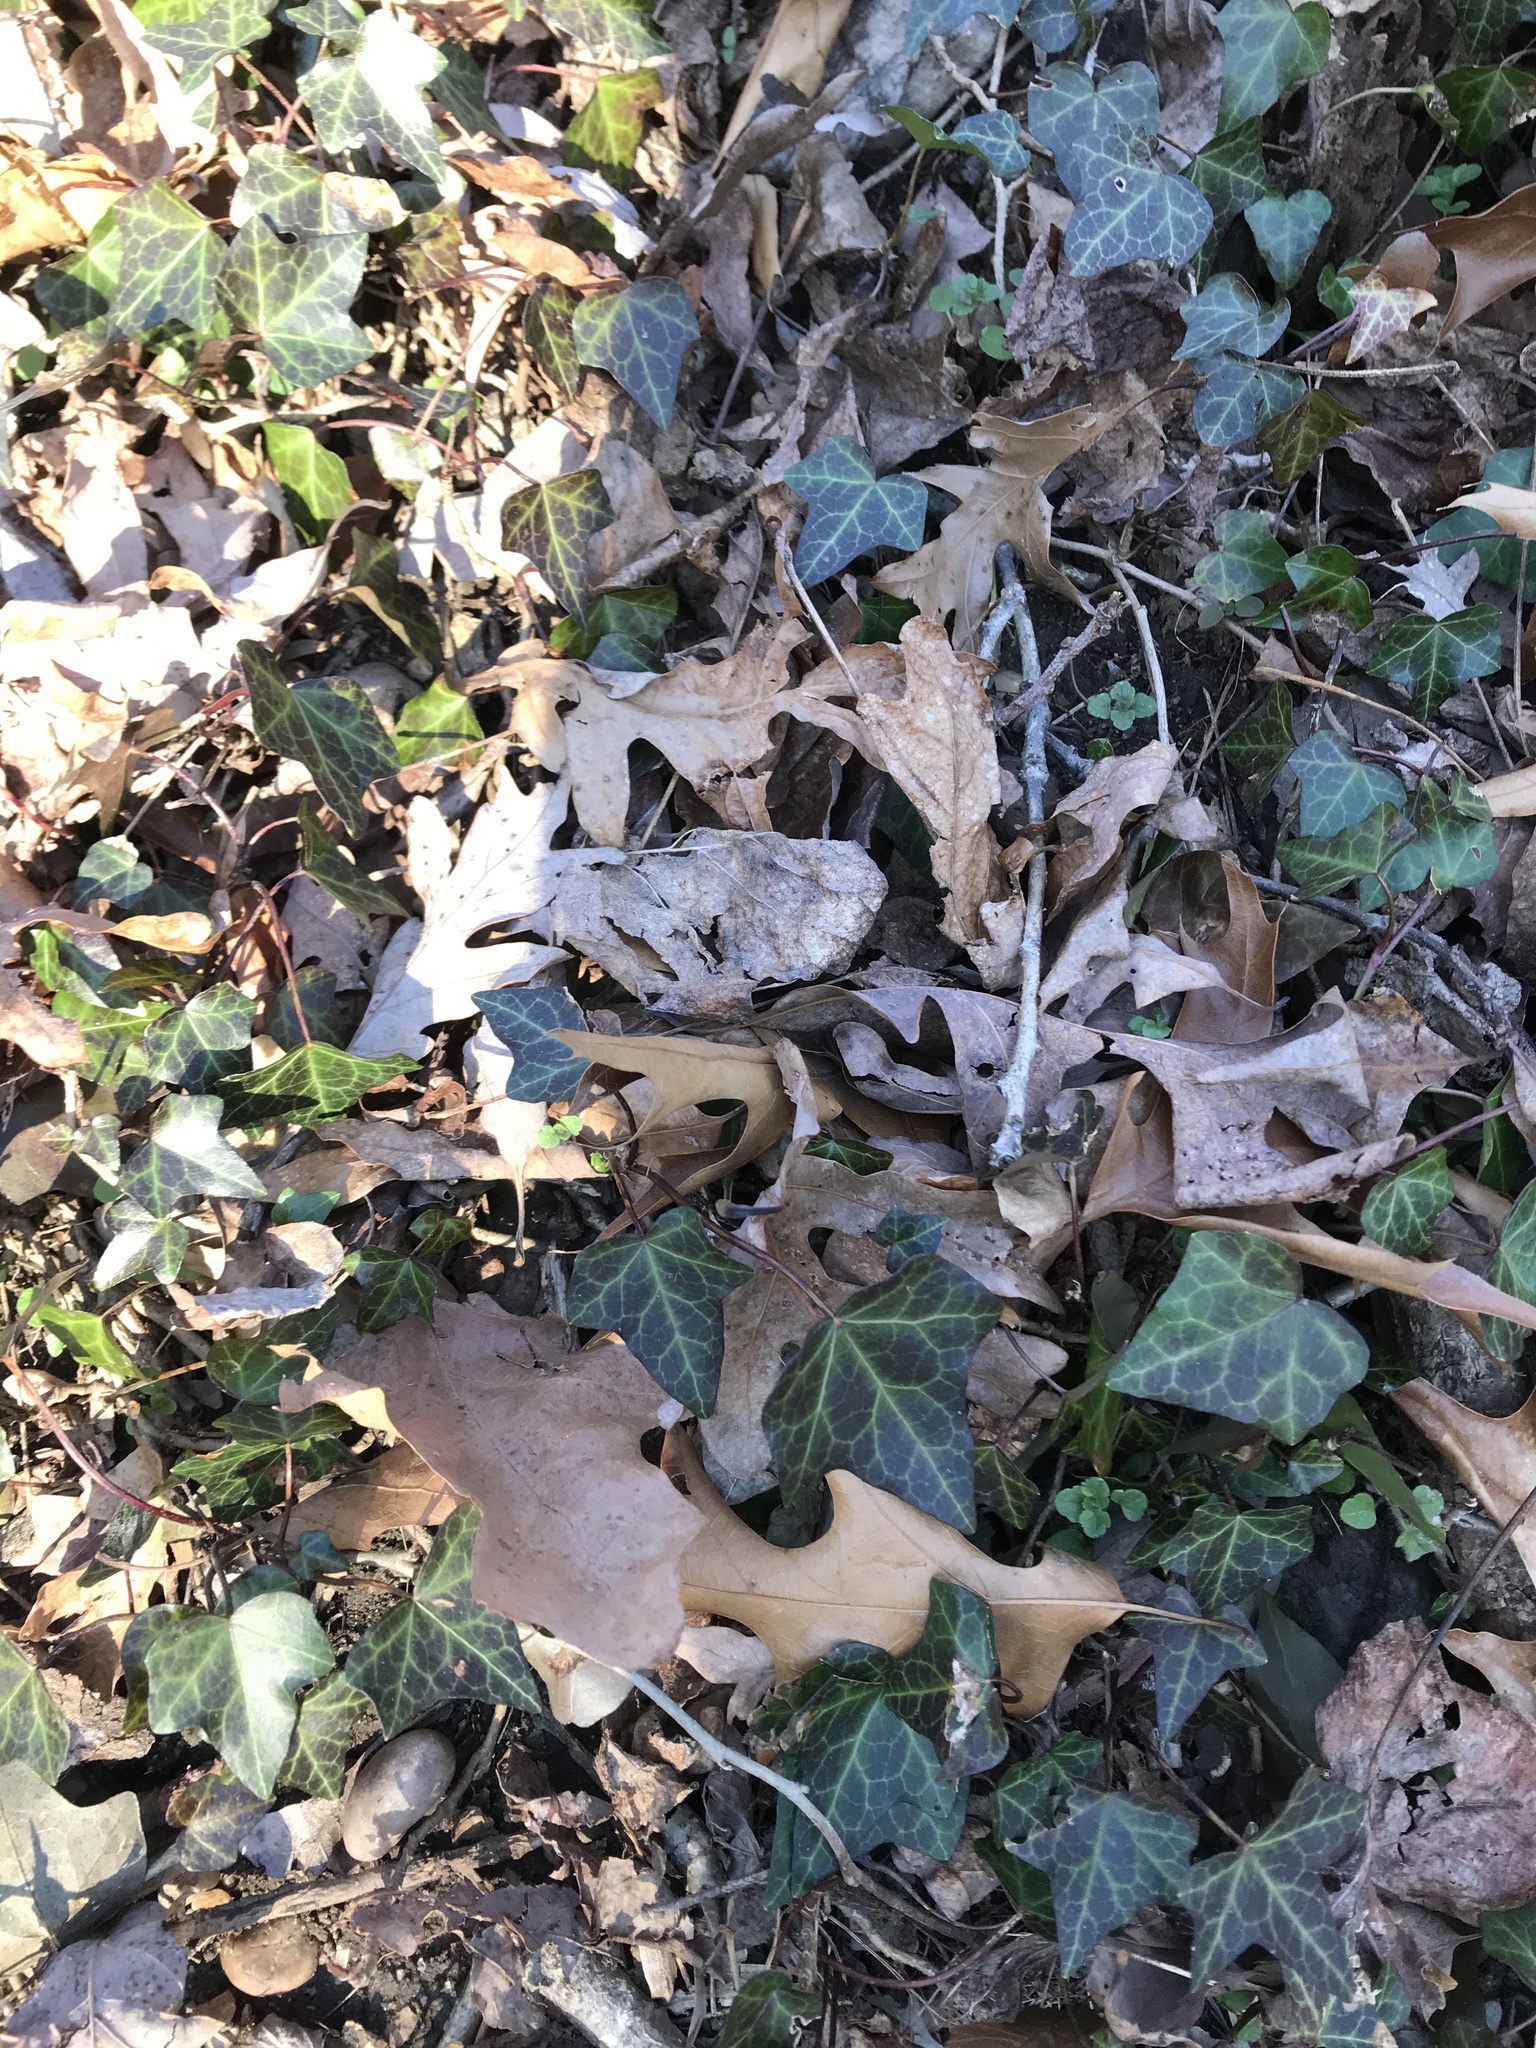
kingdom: Plantae
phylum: Tracheophyta
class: Magnoliopsida
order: Apiales
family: Araliaceae
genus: Hedera
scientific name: Hedera helix
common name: Ivy
